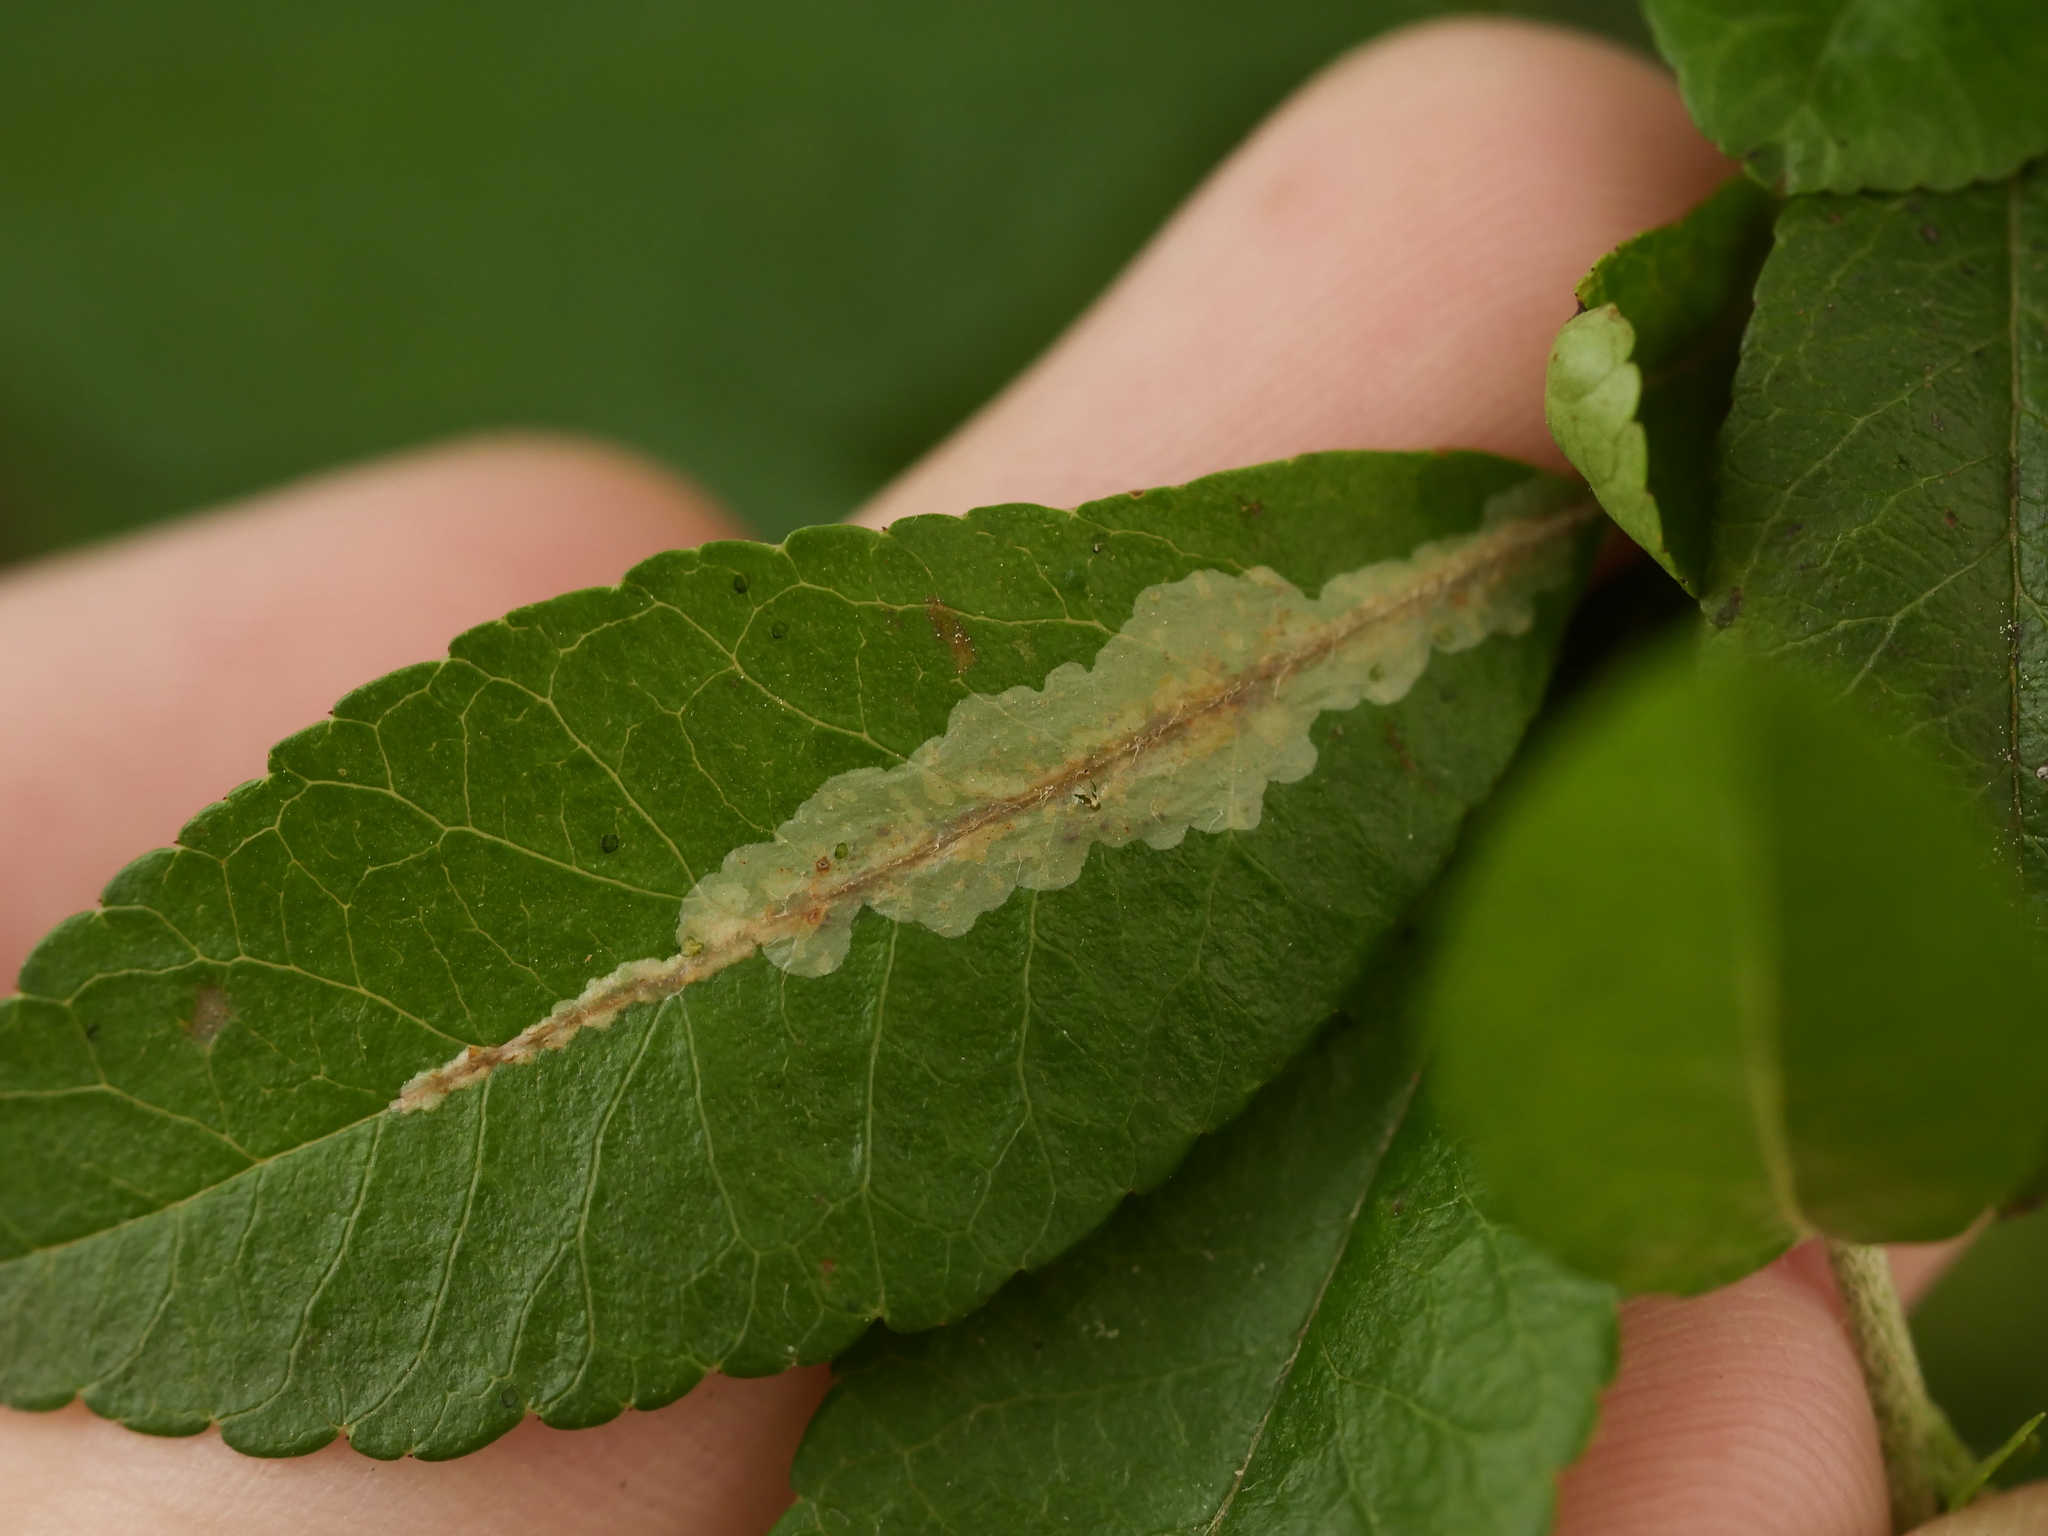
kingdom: Animalia
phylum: Arthropoda
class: Insecta
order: Lepidoptera
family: Gracillariidae
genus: Phyllonorycter
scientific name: Phyllonorycter leucographella
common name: Firethorn leaf-miner
